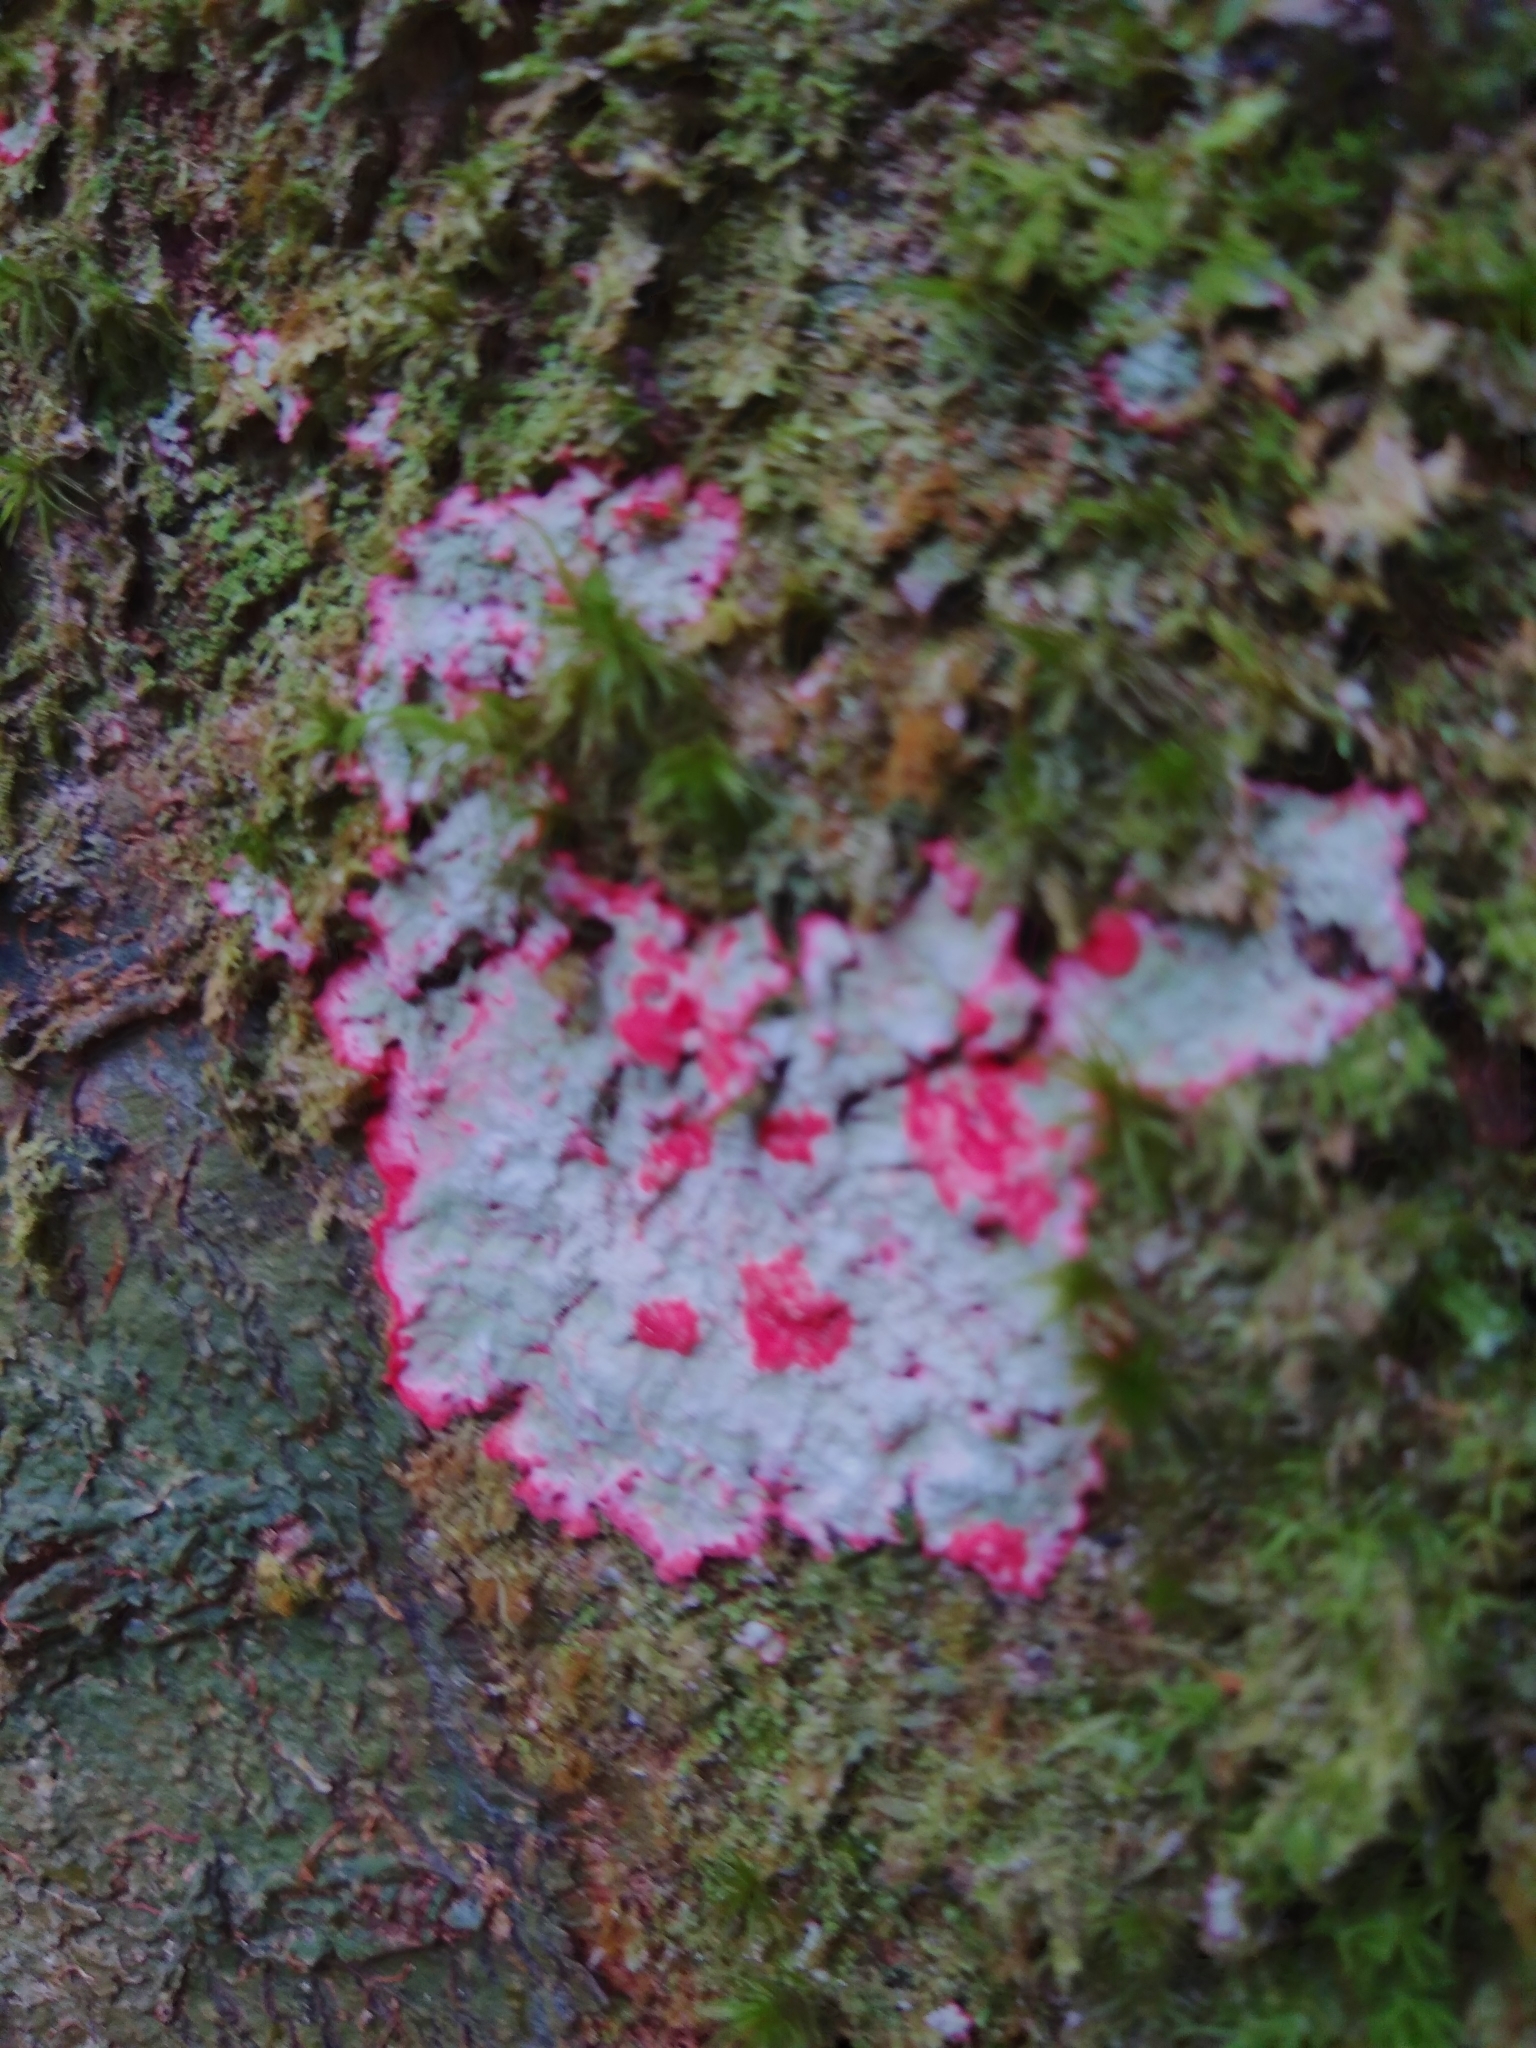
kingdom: Fungi
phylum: Ascomycota
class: Arthoniomycetes
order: Arthoniales
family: Arthoniaceae
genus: Herpothallon
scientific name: Herpothallon rubrocinctum
